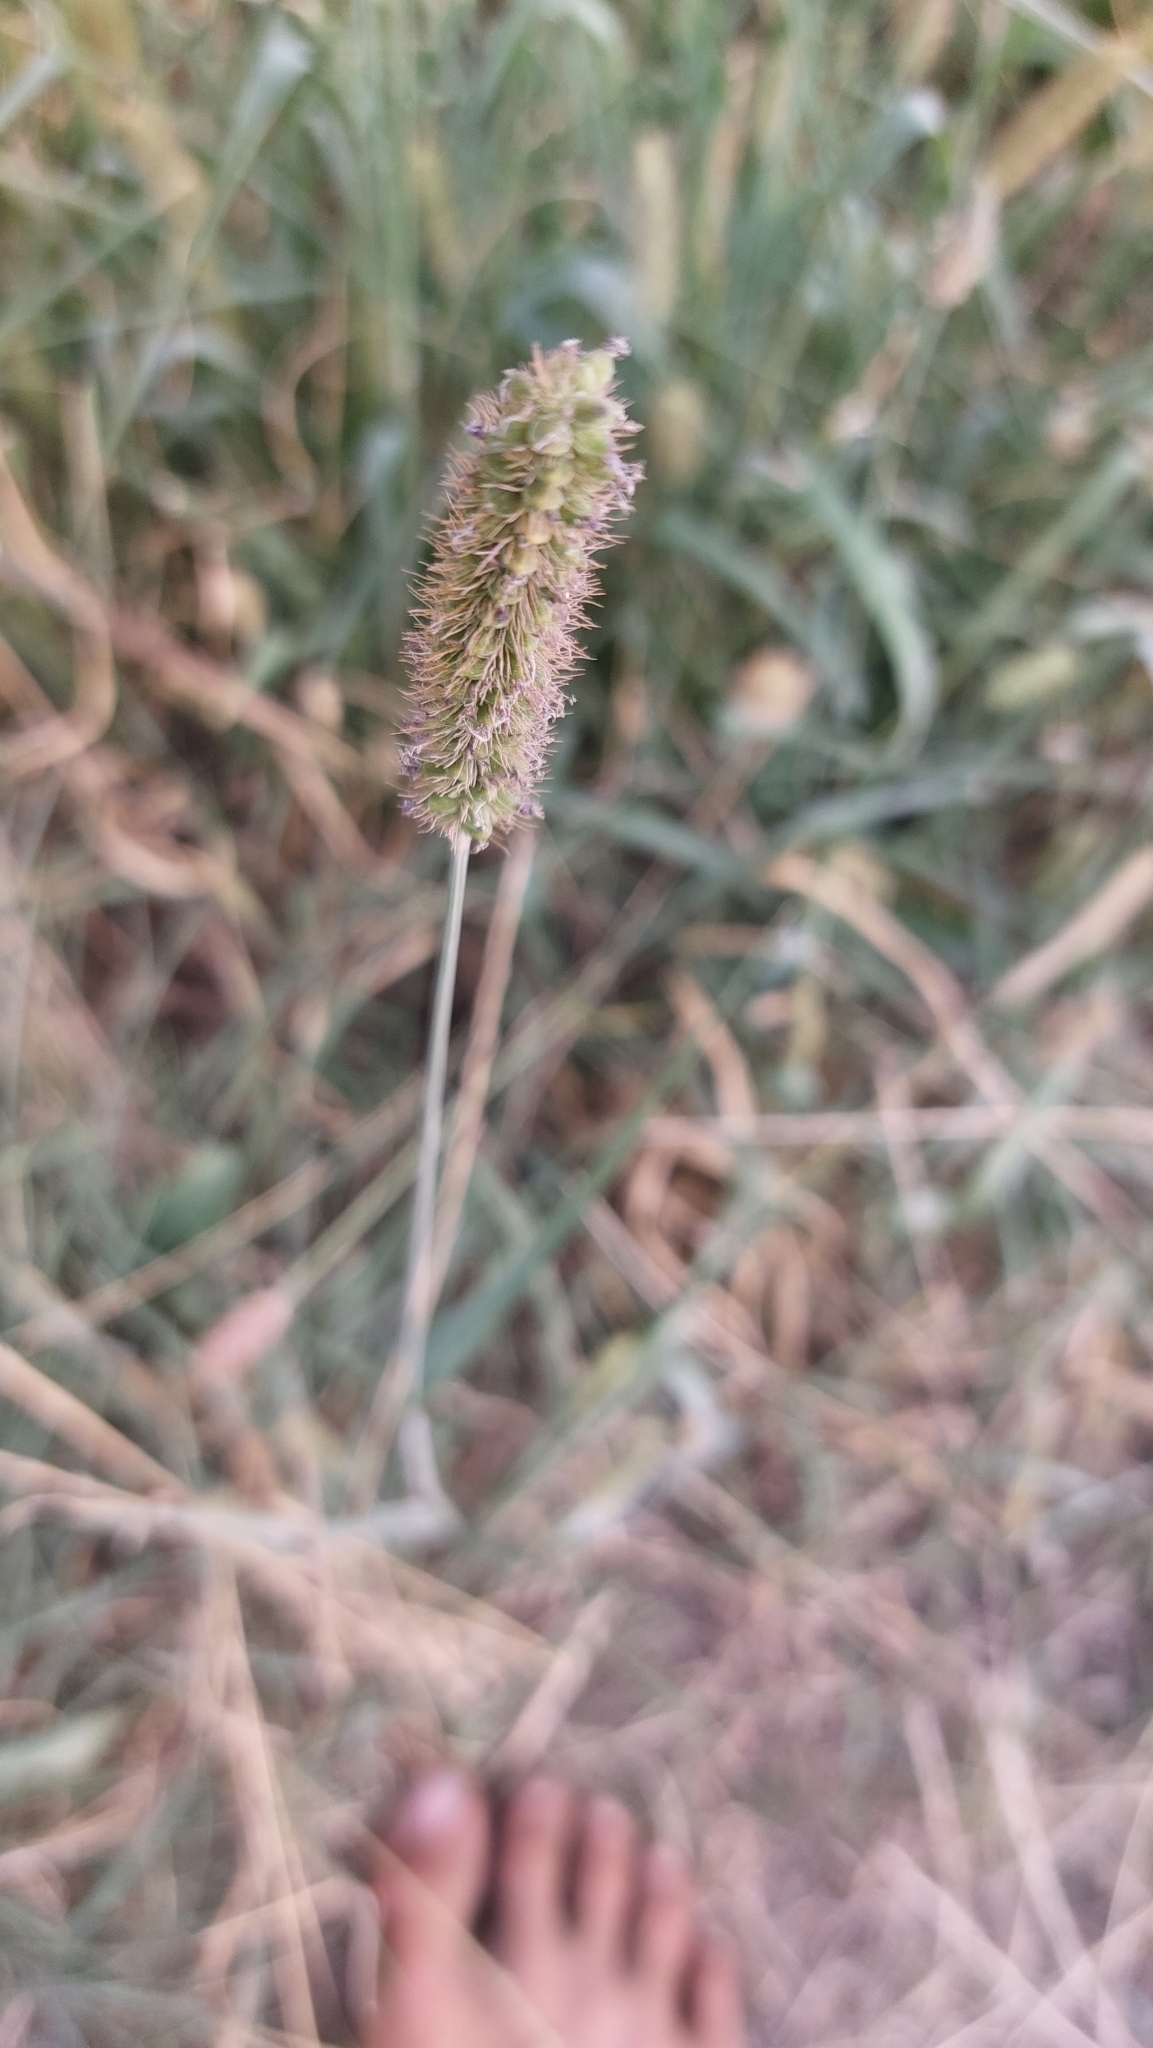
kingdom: Plantae
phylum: Tracheophyta
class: Liliopsida
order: Poales
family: Poaceae
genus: Setaria
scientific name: Setaria pumila
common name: Yellow bristle-grass
